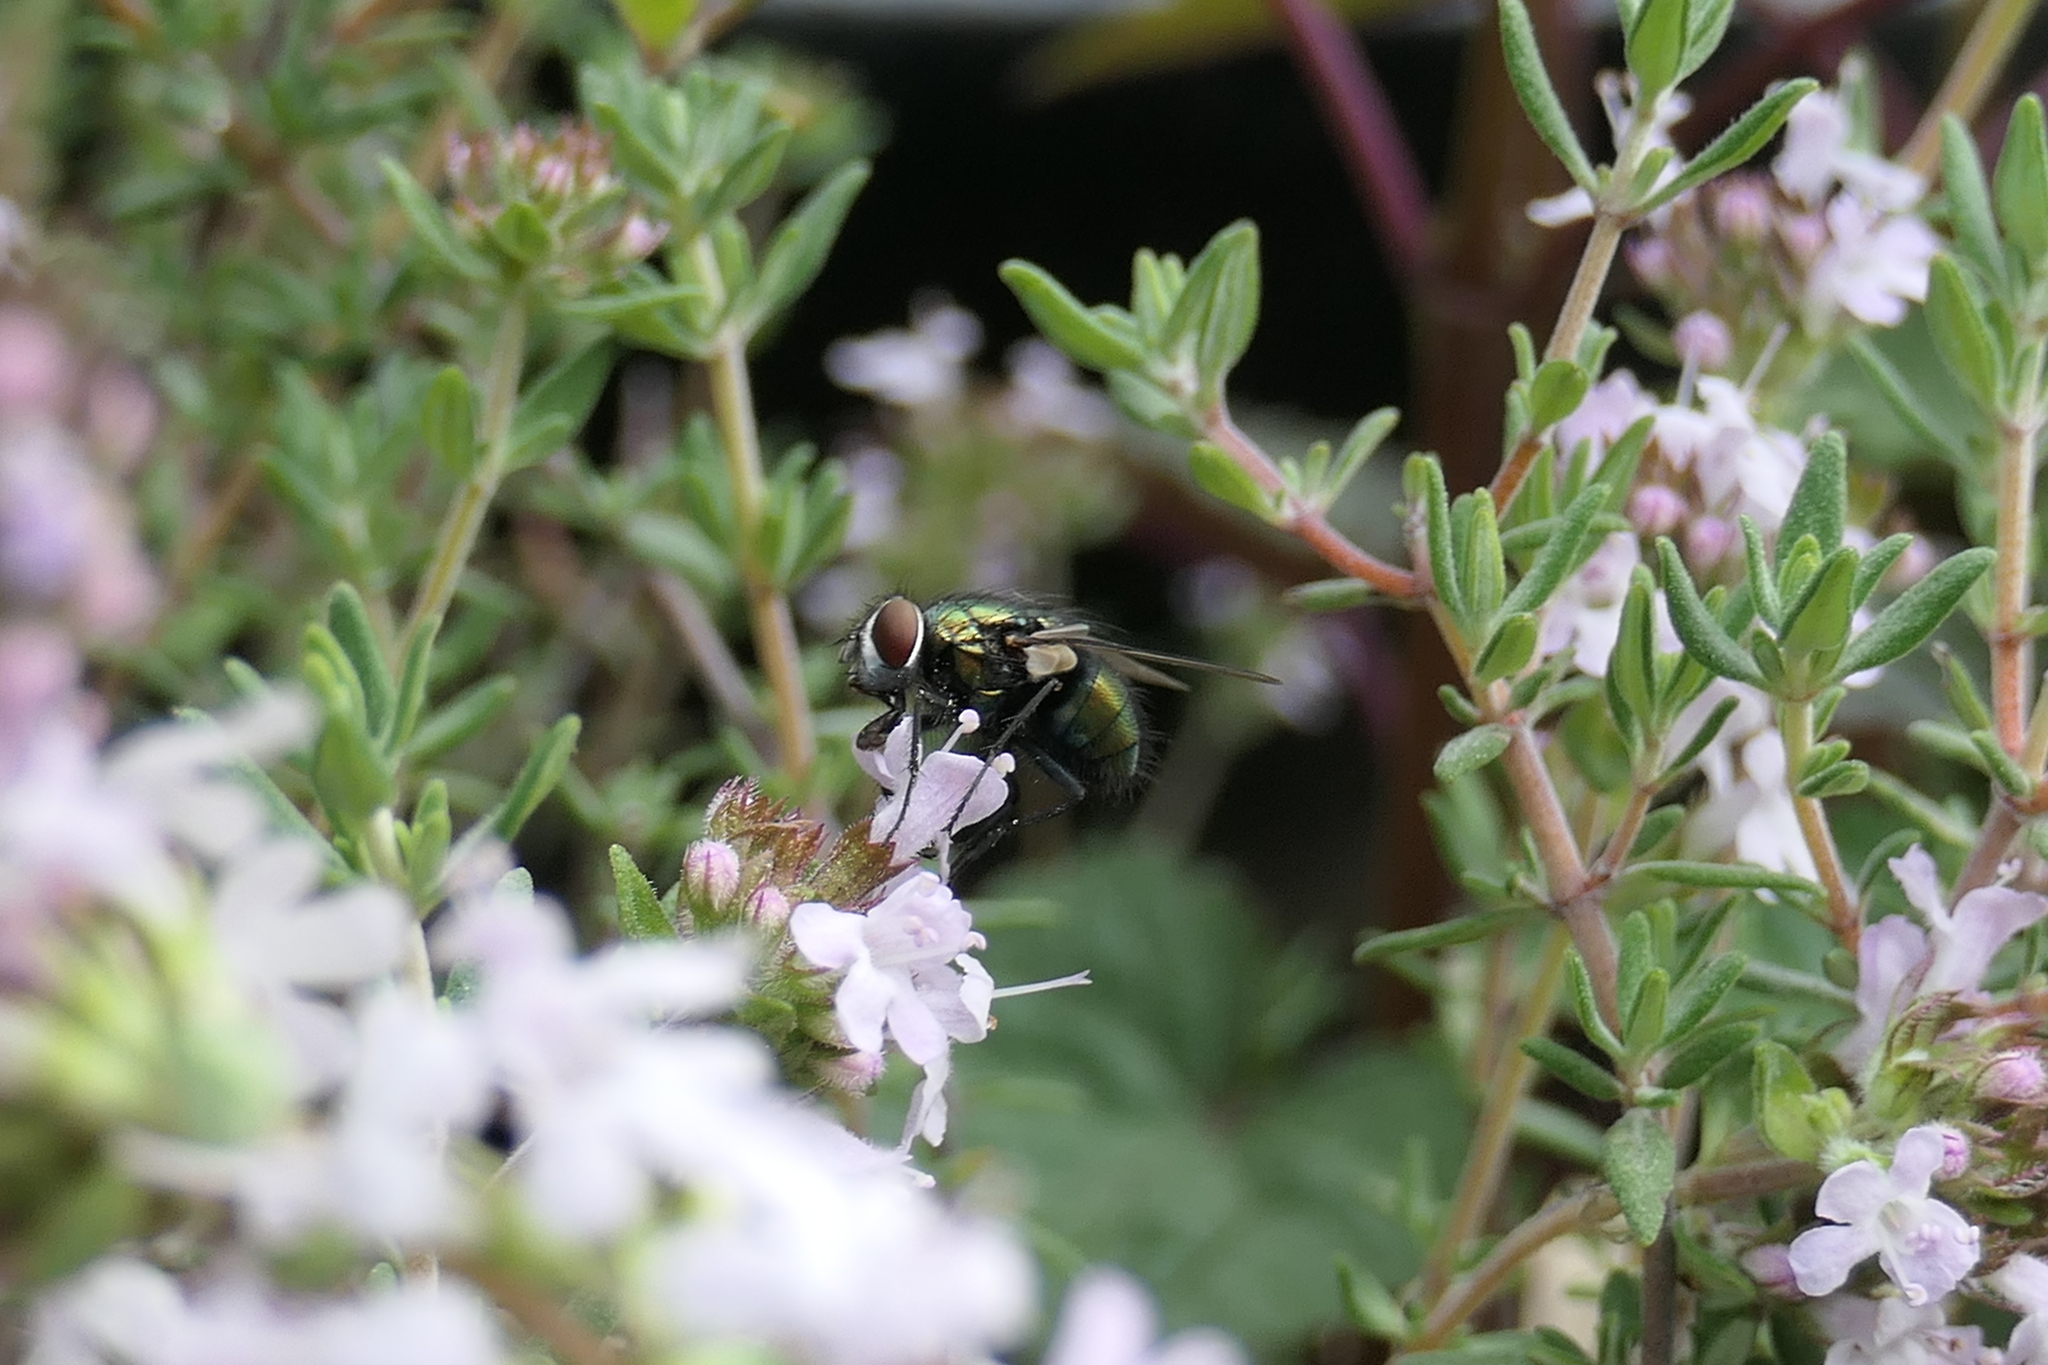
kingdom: Animalia
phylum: Arthropoda
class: Insecta
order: Diptera
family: Calliphoridae
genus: Lucilia
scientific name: Lucilia sericata
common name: Blow fly
